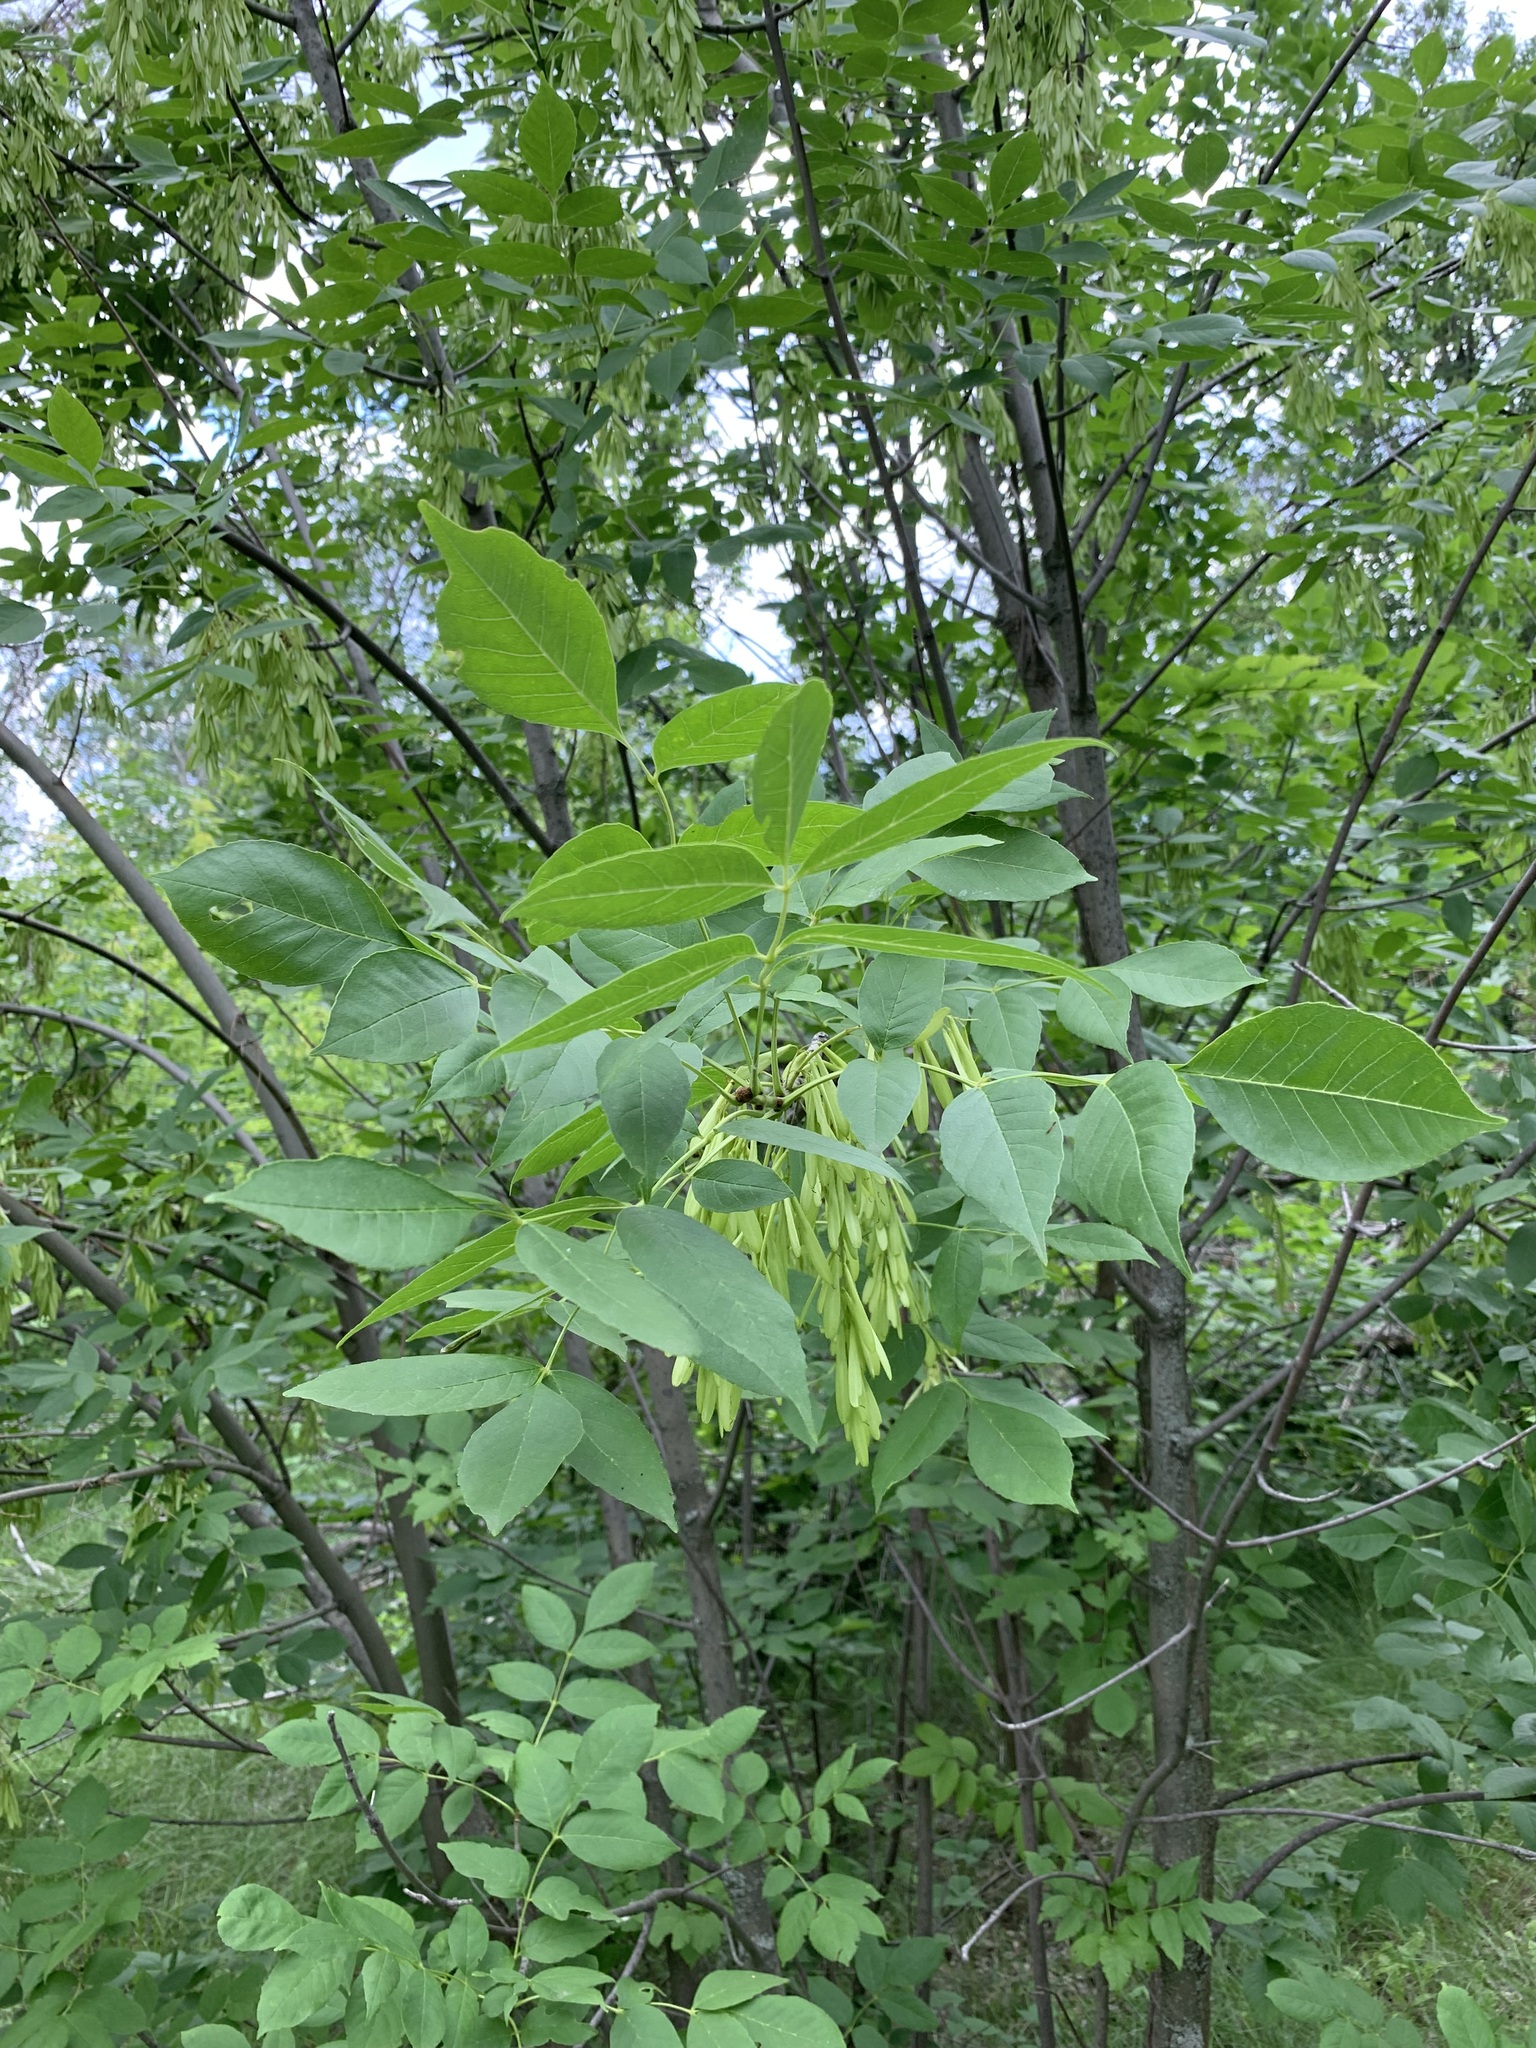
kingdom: Plantae
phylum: Tracheophyta
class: Magnoliopsida
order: Lamiales
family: Oleaceae
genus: Fraxinus
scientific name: Fraxinus pennsylvanica
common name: Green ash
